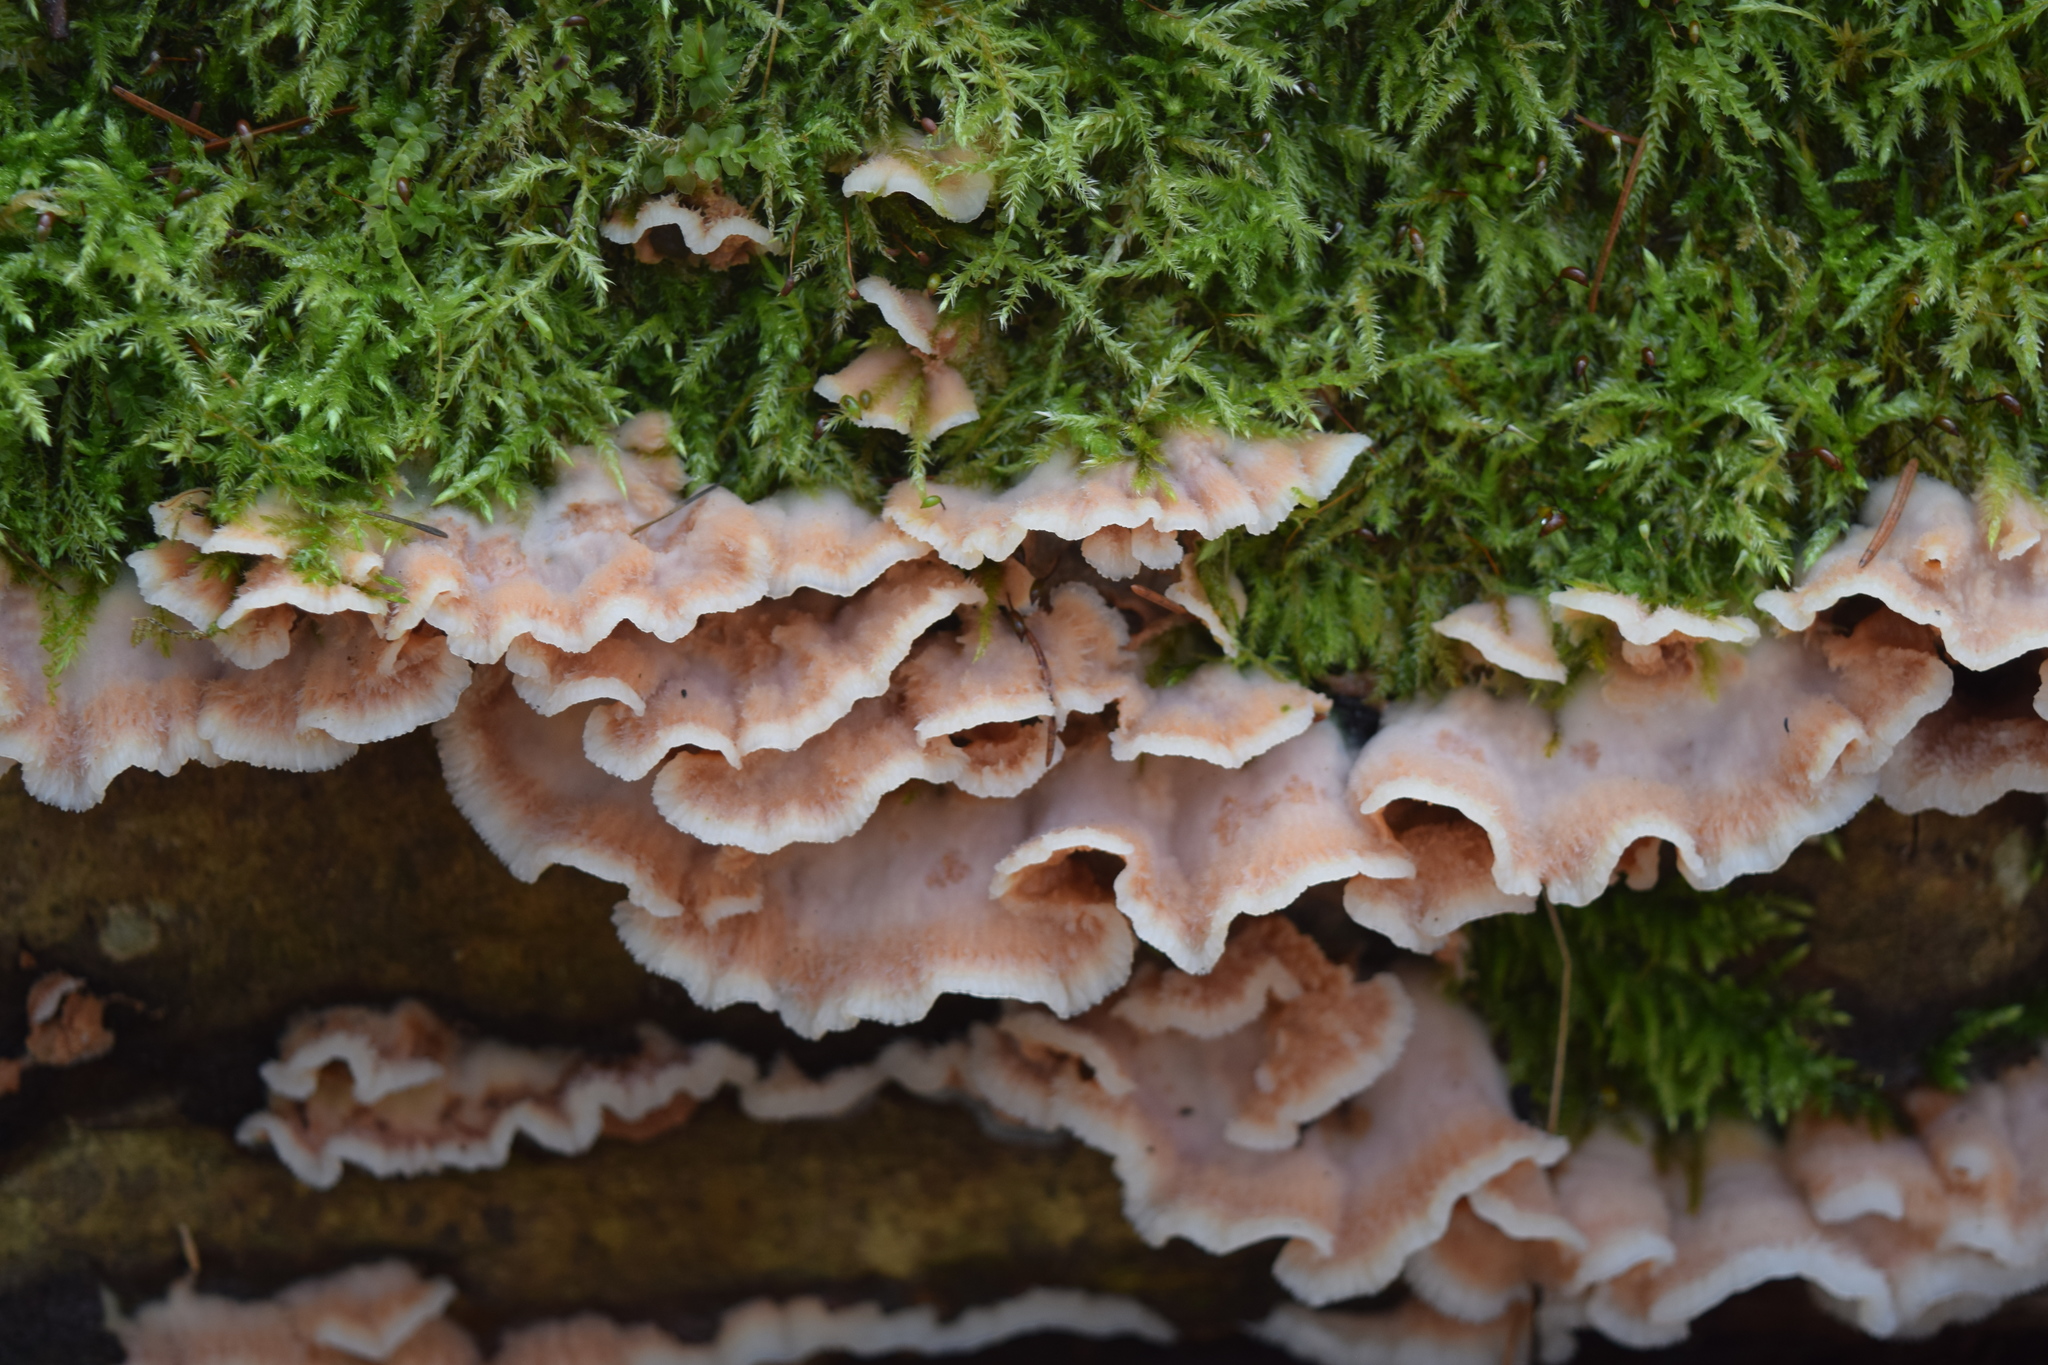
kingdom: Fungi
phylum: Basidiomycota
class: Agaricomycetes
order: Polyporales
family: Meruliaceae
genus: Phlebia
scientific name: Phlebia tremellosa
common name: Jelly rot
